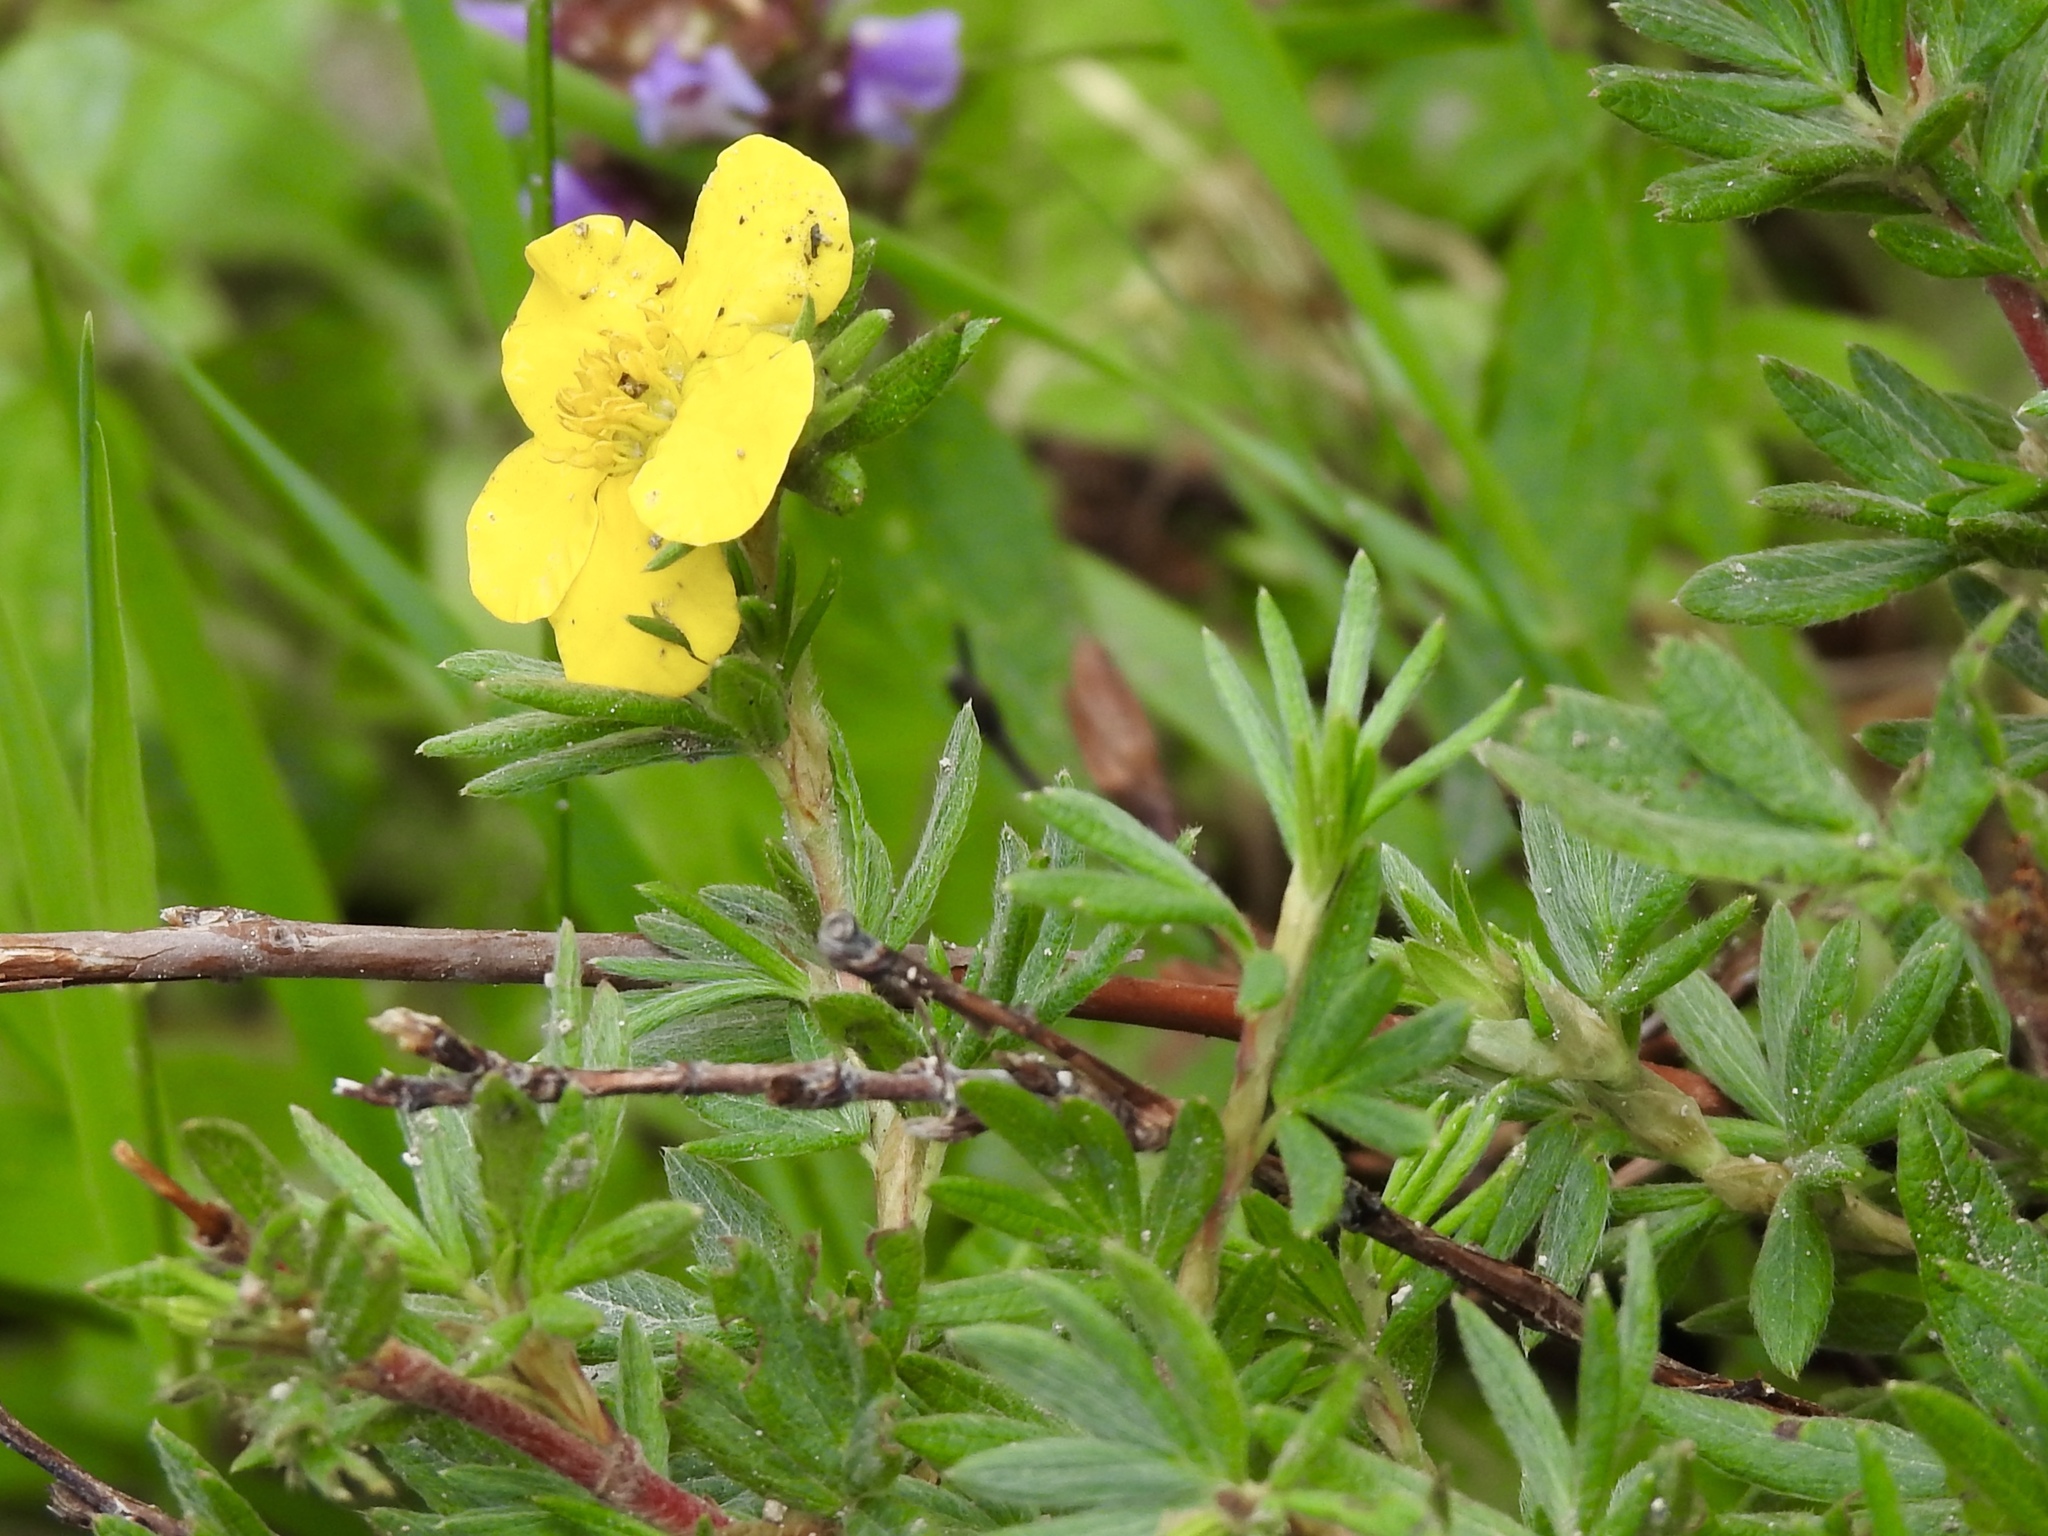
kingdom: Plantae
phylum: Tracheophyta
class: Magnoliopsida
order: Rosales
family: Rosaceae
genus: Dasiphora
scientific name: Dasiphora fruticosa
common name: Shrubby cinquefoil
